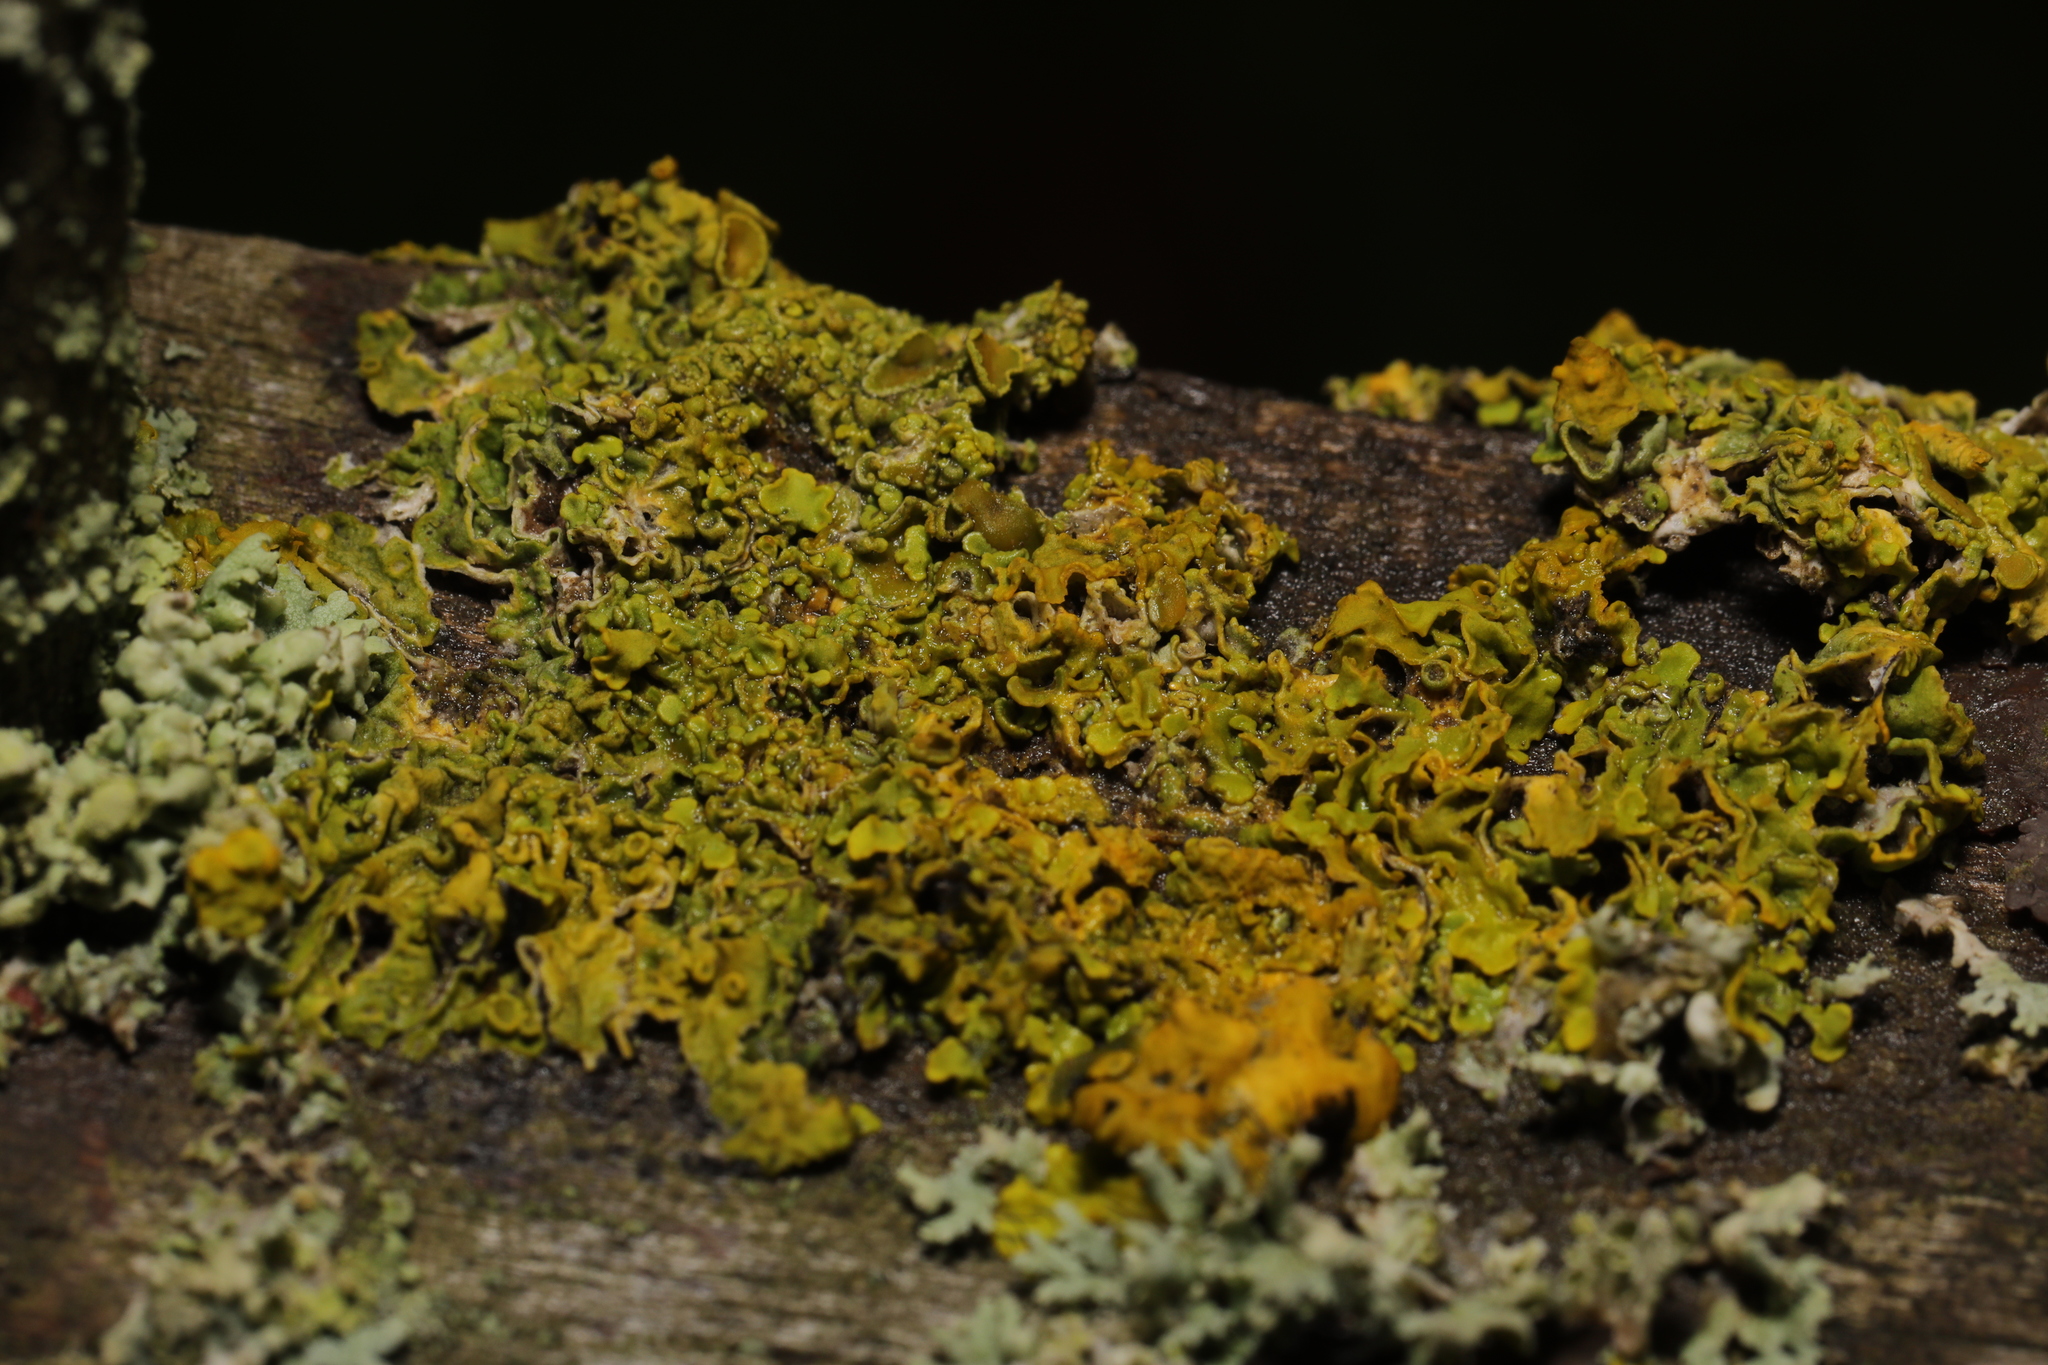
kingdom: Fungi
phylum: Ascomycota
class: Lecanoromycetes
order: Teloschistales
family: Teloschistaceae
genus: Xanthoria
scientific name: Xanthoria parietina
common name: Common orange lichen
